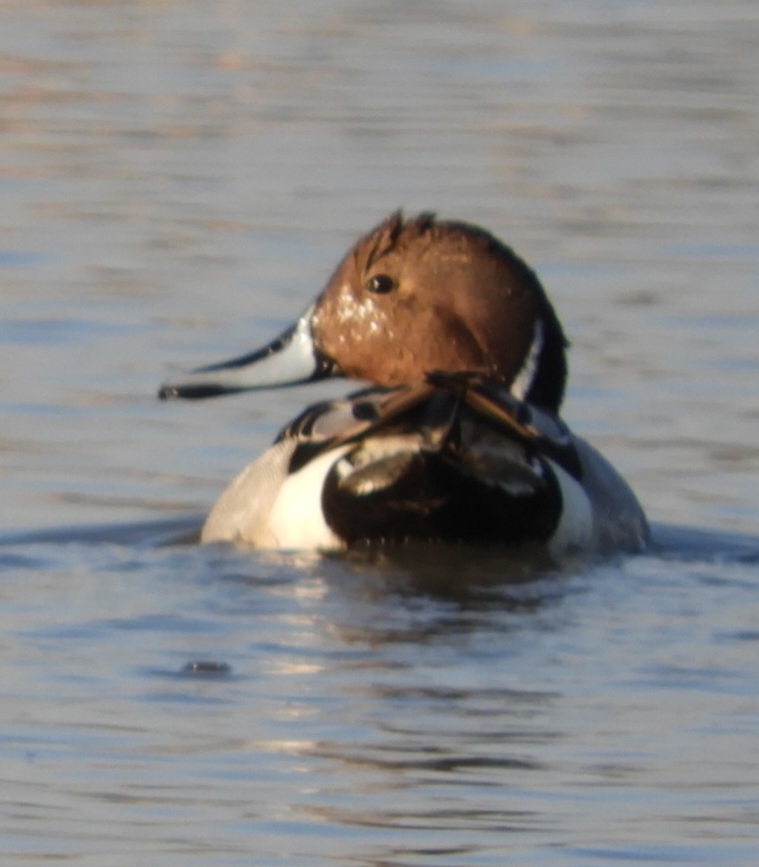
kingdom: Animalia
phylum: Chordata
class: Aves
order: Anseriformes
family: Anatidae
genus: Anas
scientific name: Anas acuta
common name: Northern pintail
